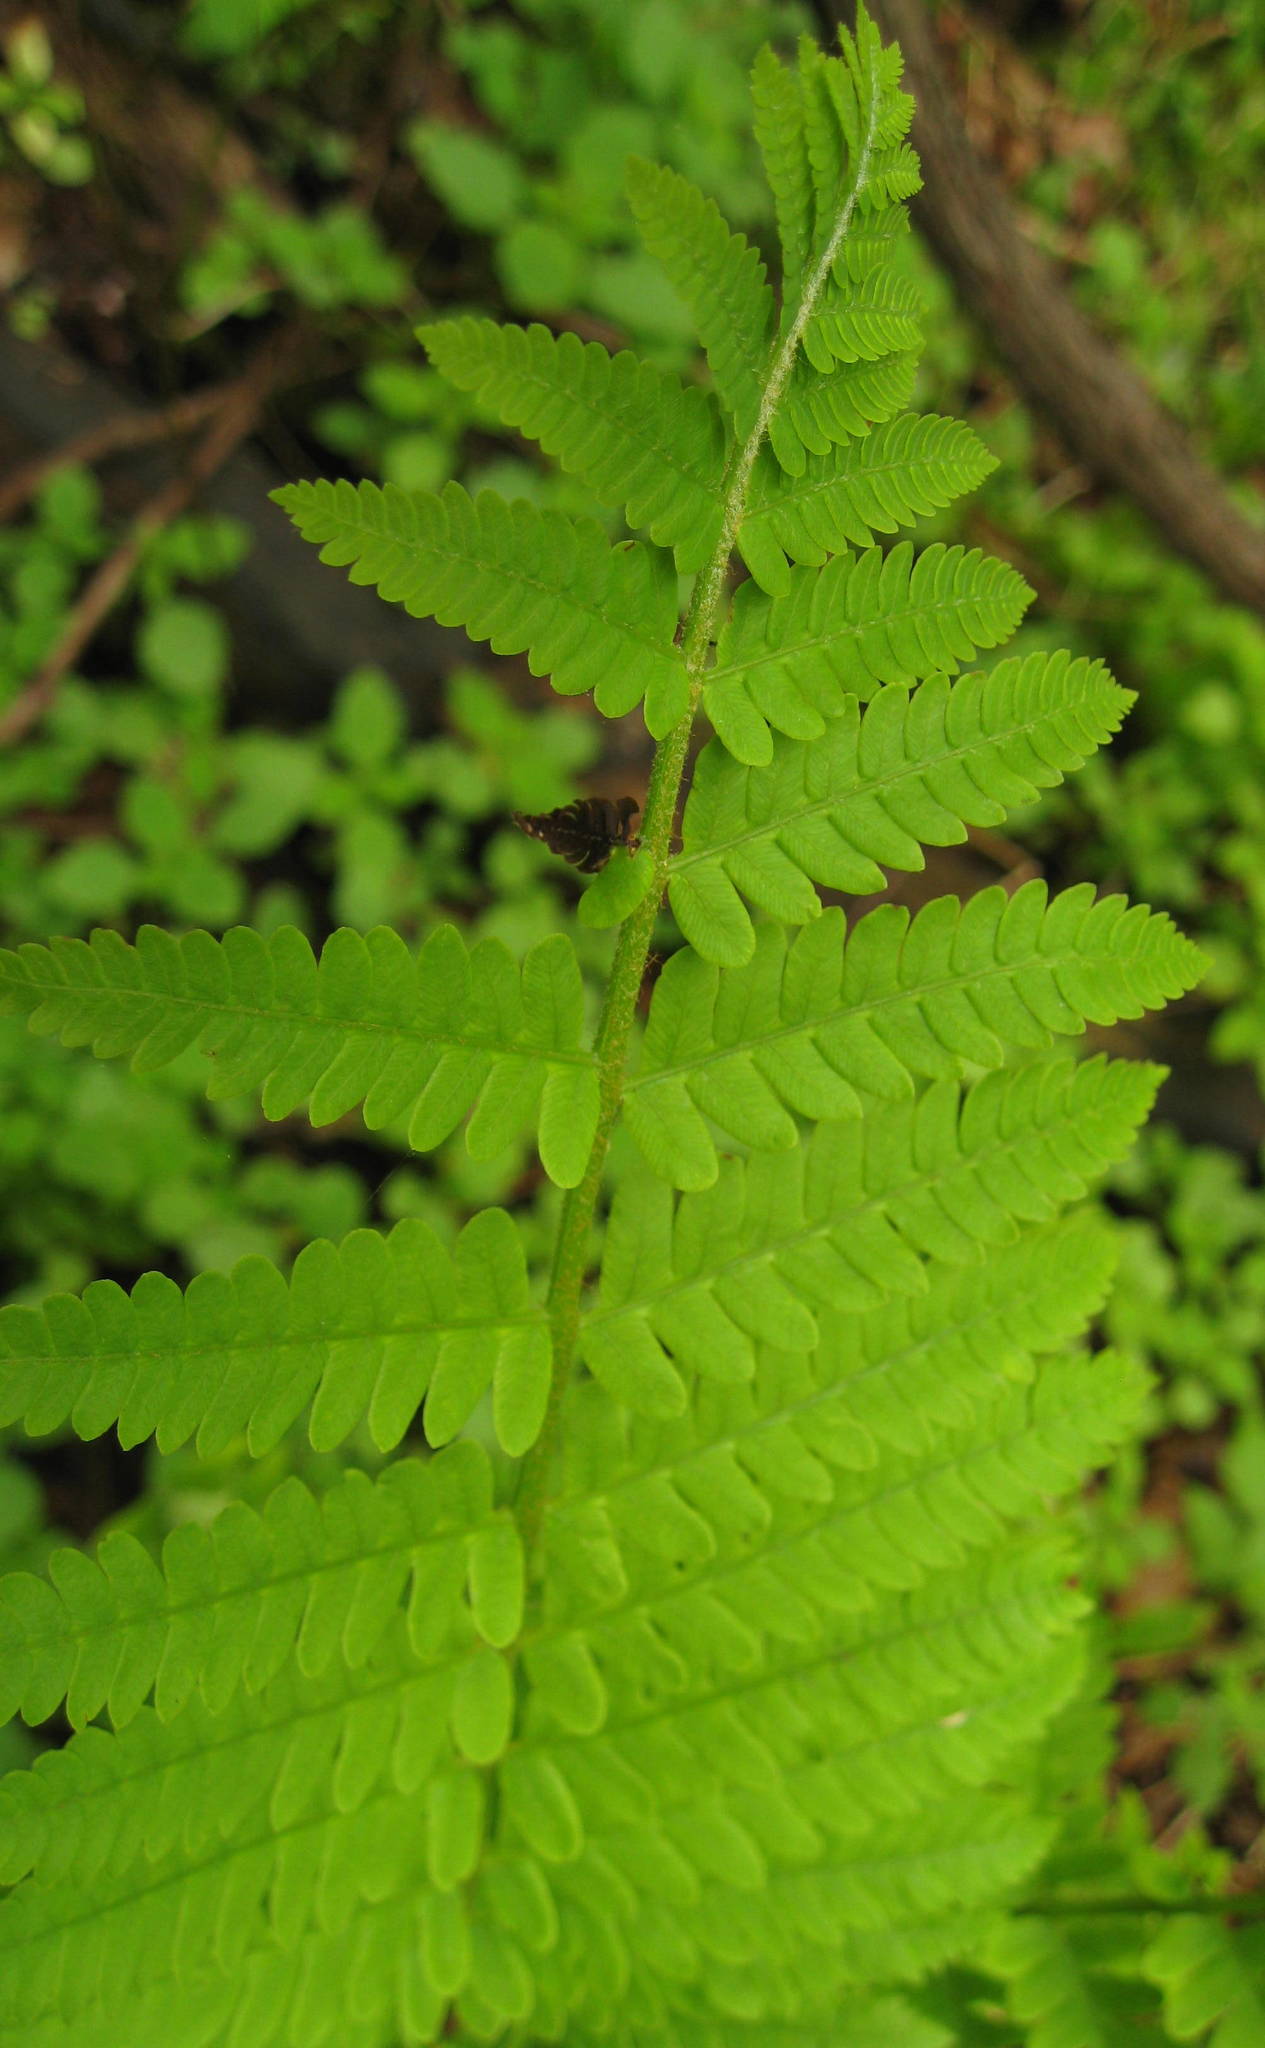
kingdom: Plantae
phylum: Tracheophyta
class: Polypodiopsida
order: Osmundales
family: Osmundaceae
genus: Claytosmunda
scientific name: Claytosmunda claytoniana
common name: Clayton's fern
